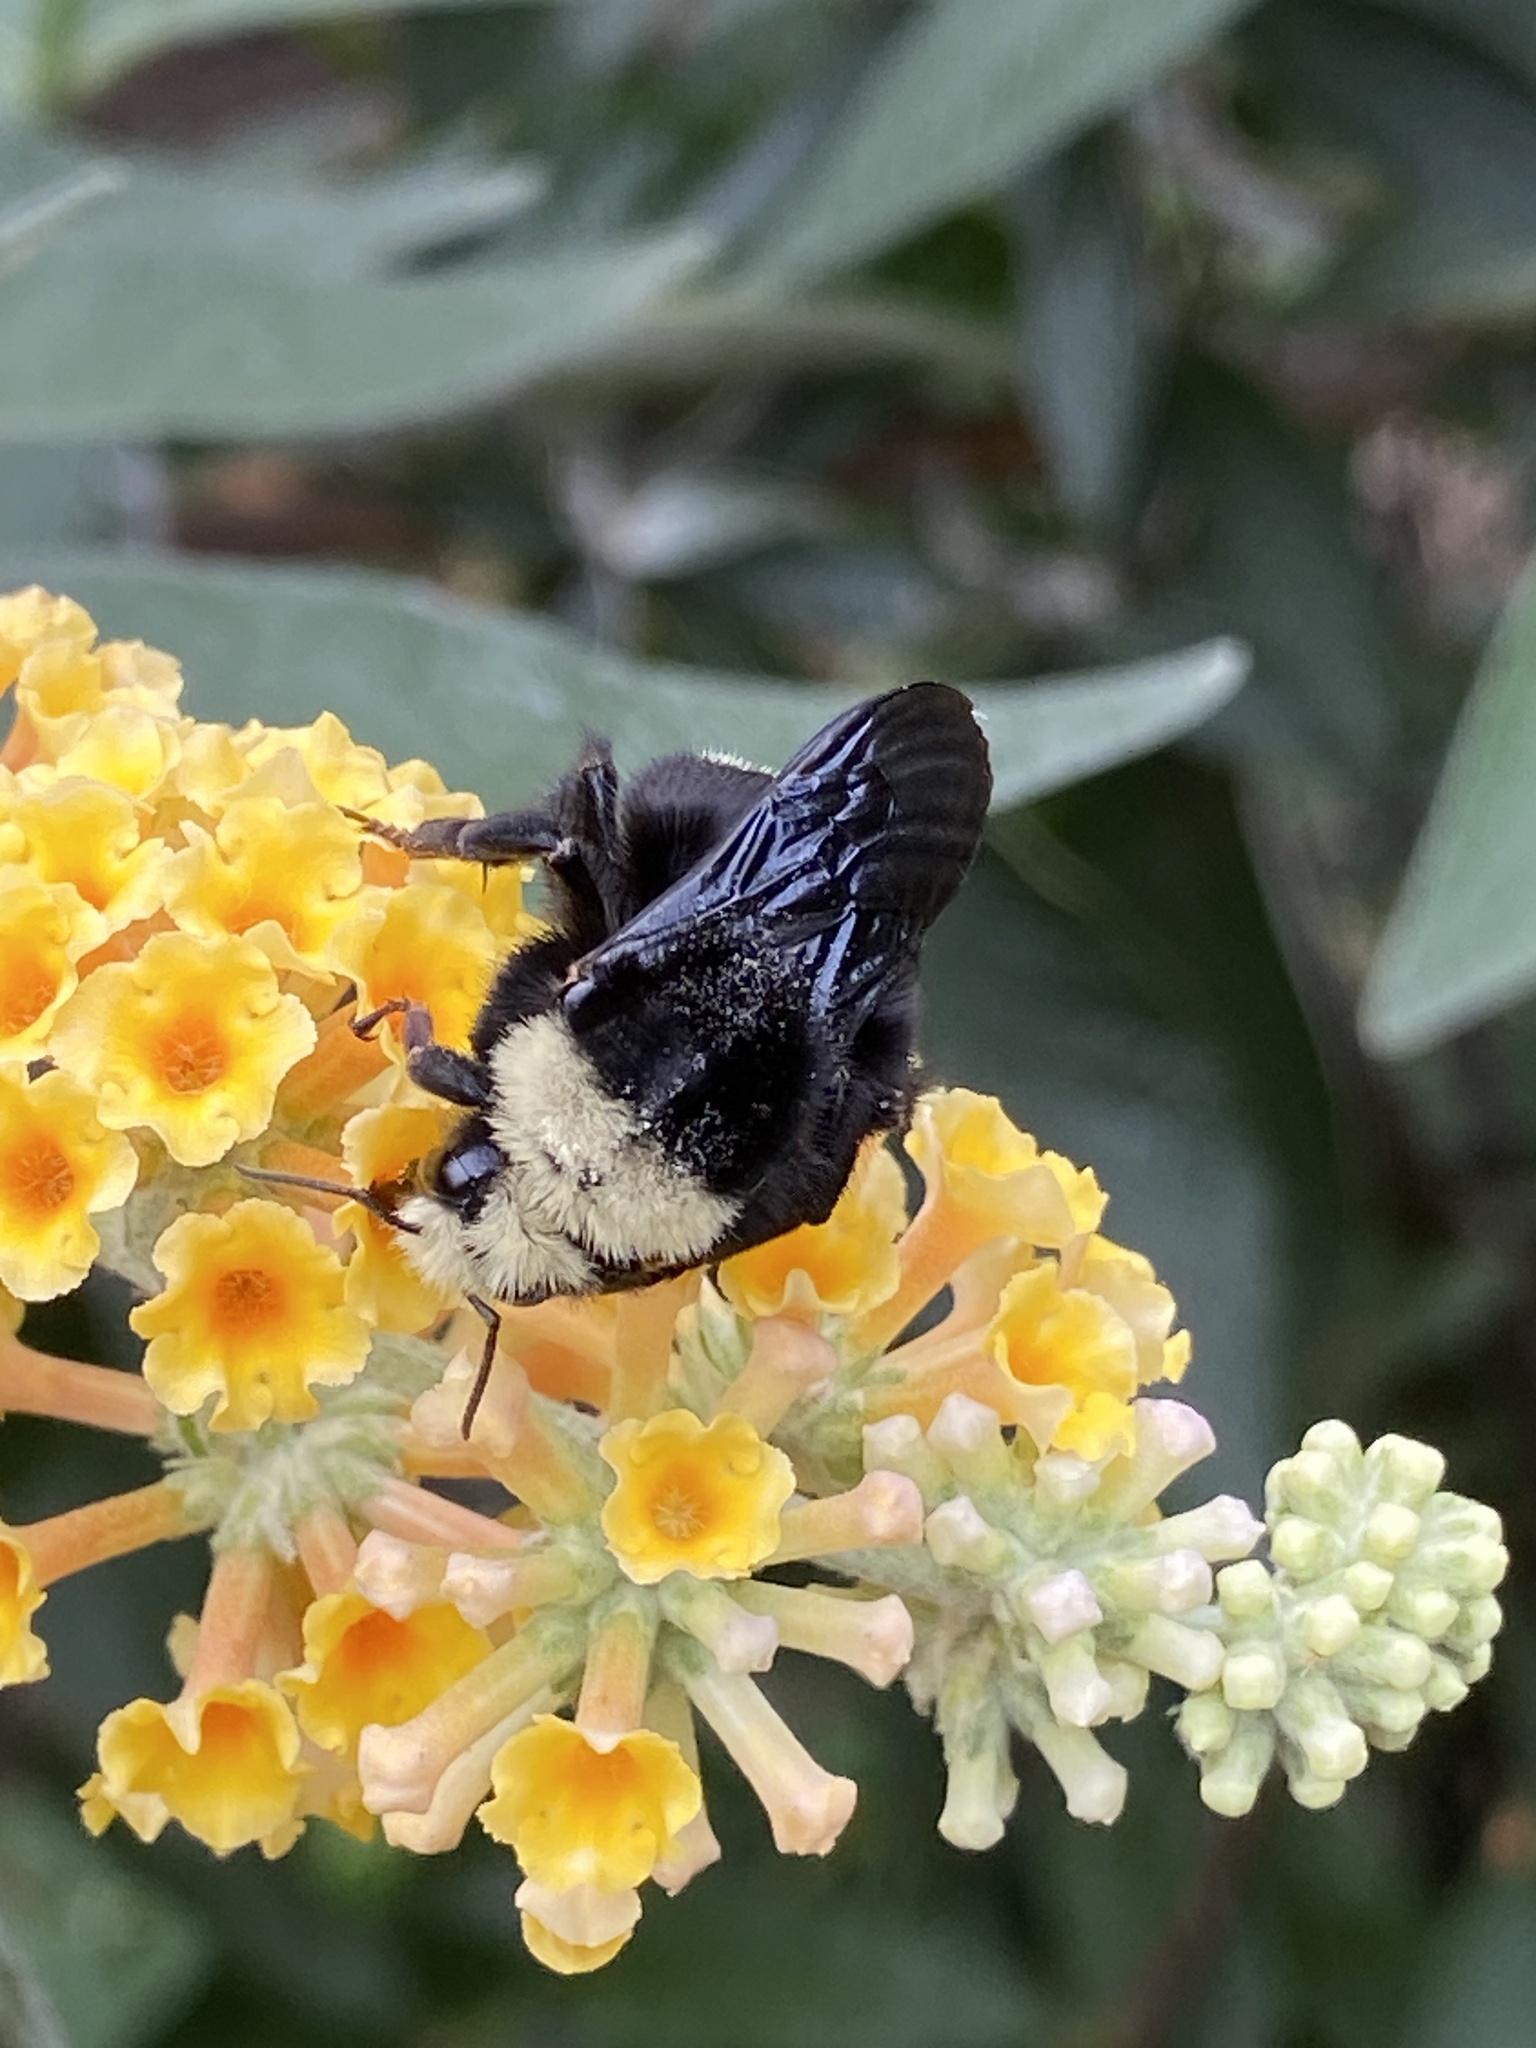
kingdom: Animalia
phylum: Arthropoda
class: Insecta
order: Hymenoptera
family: Apidae
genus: Bombus
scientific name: Bombus vosnesenskii
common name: Vosnesensky bumble bee
